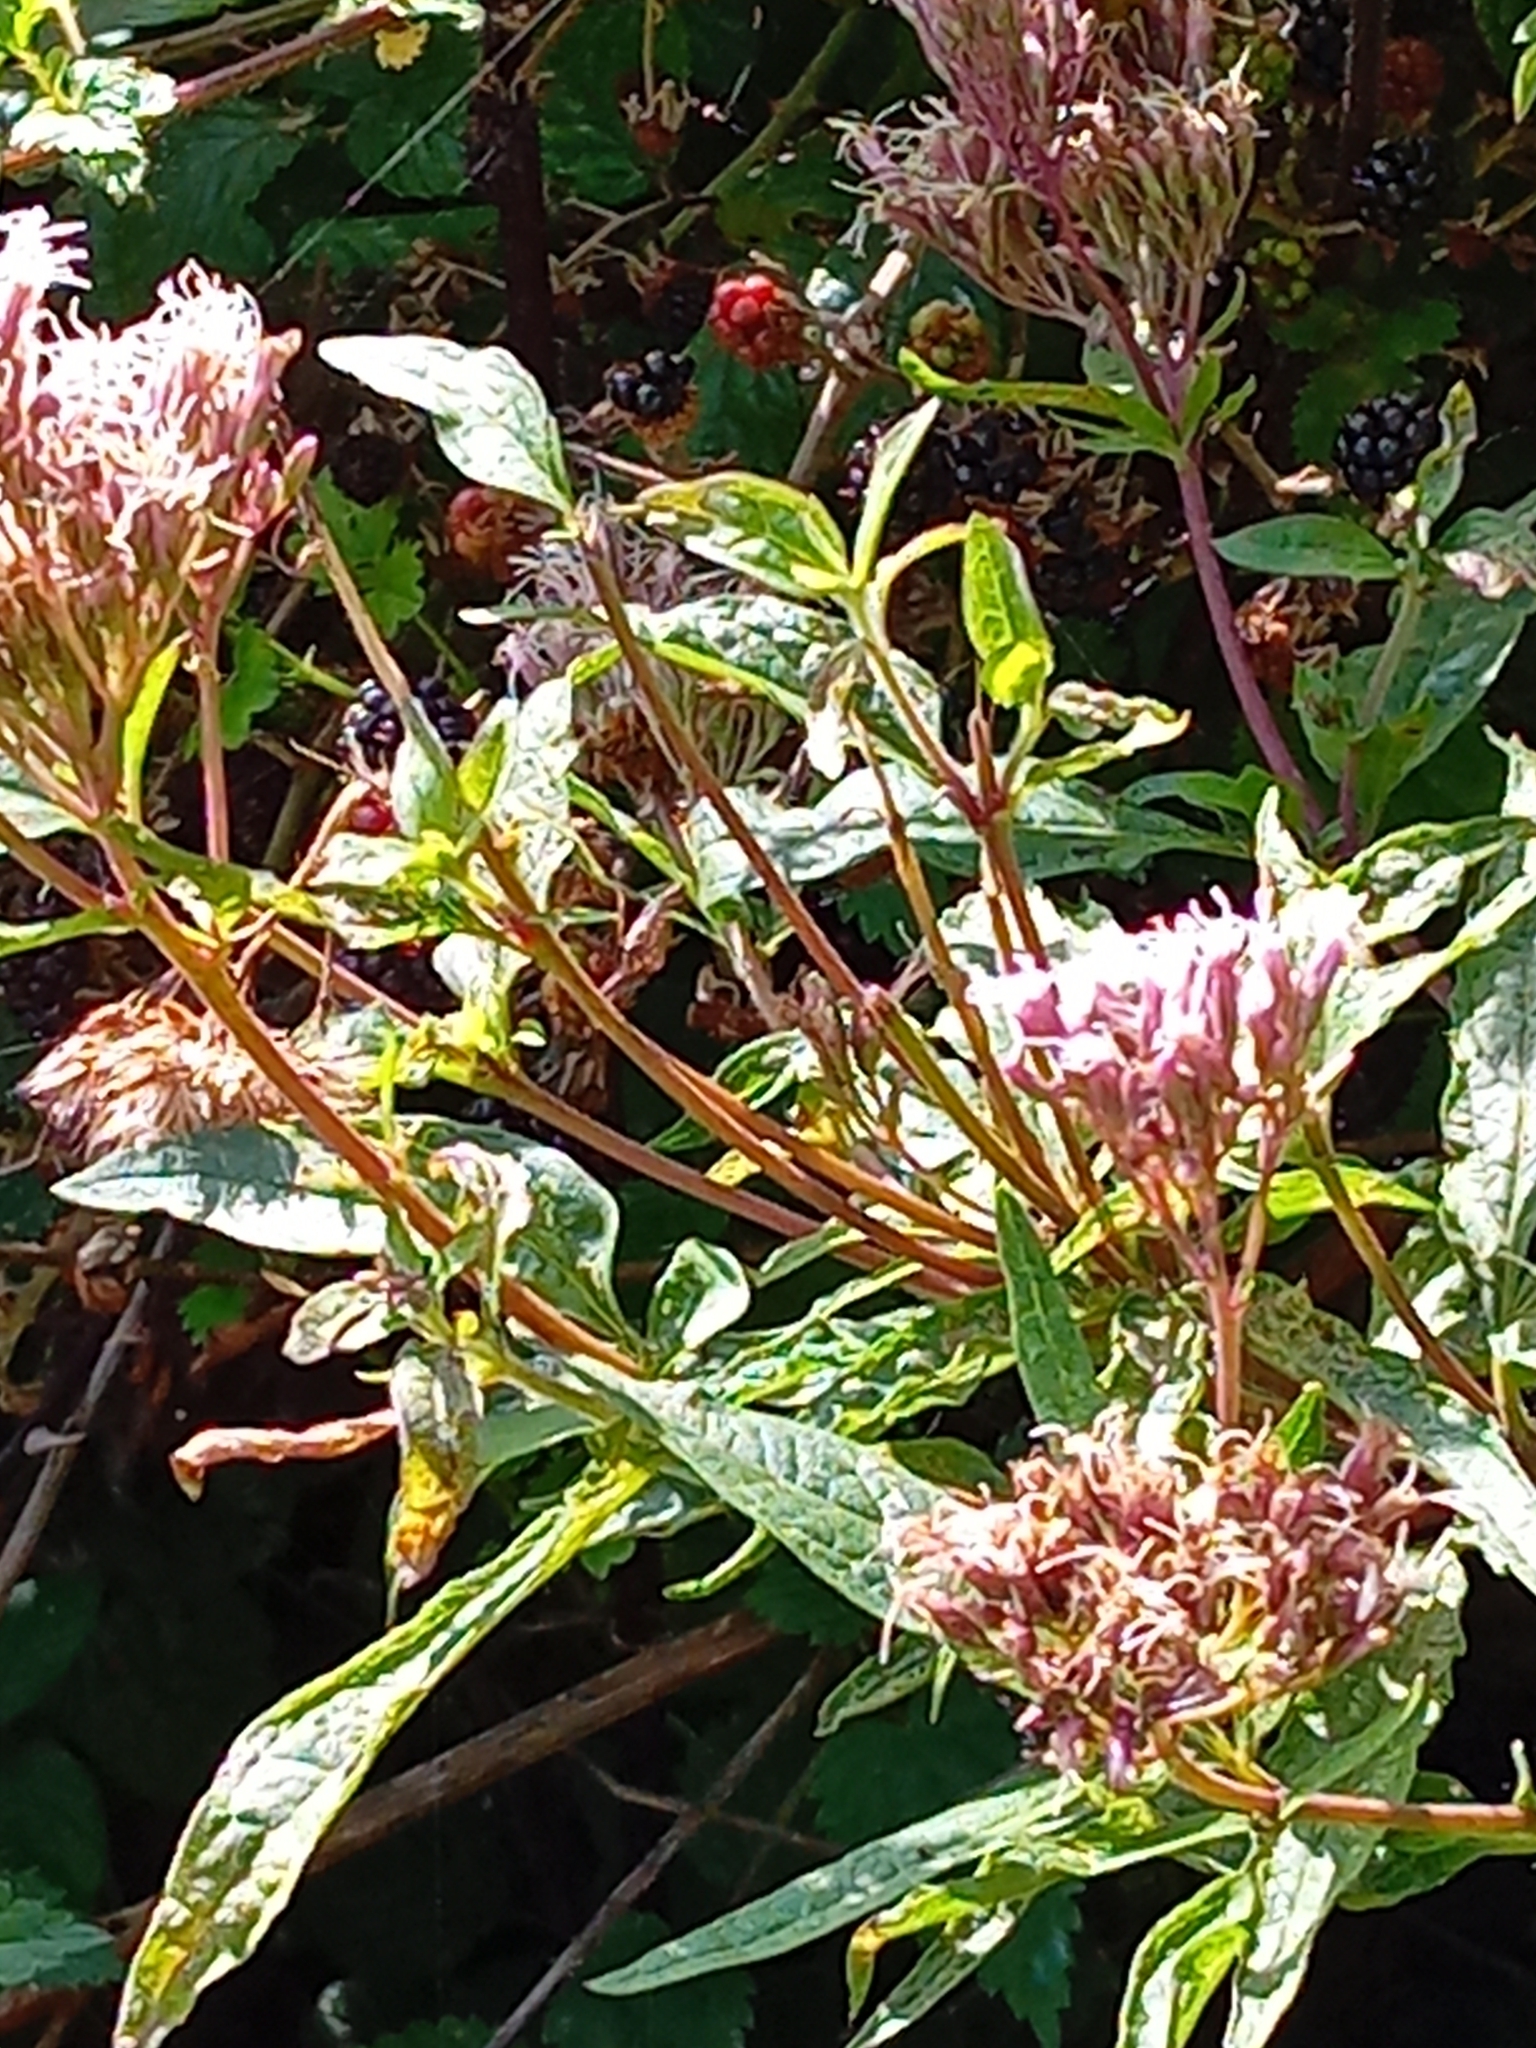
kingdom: Plantae
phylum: Tracheophyta
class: Magnoliopsida
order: Asterales
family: Asteraceae
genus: Eupatorium
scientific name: Eupatorium cannabinum
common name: Hemp-agrimony
